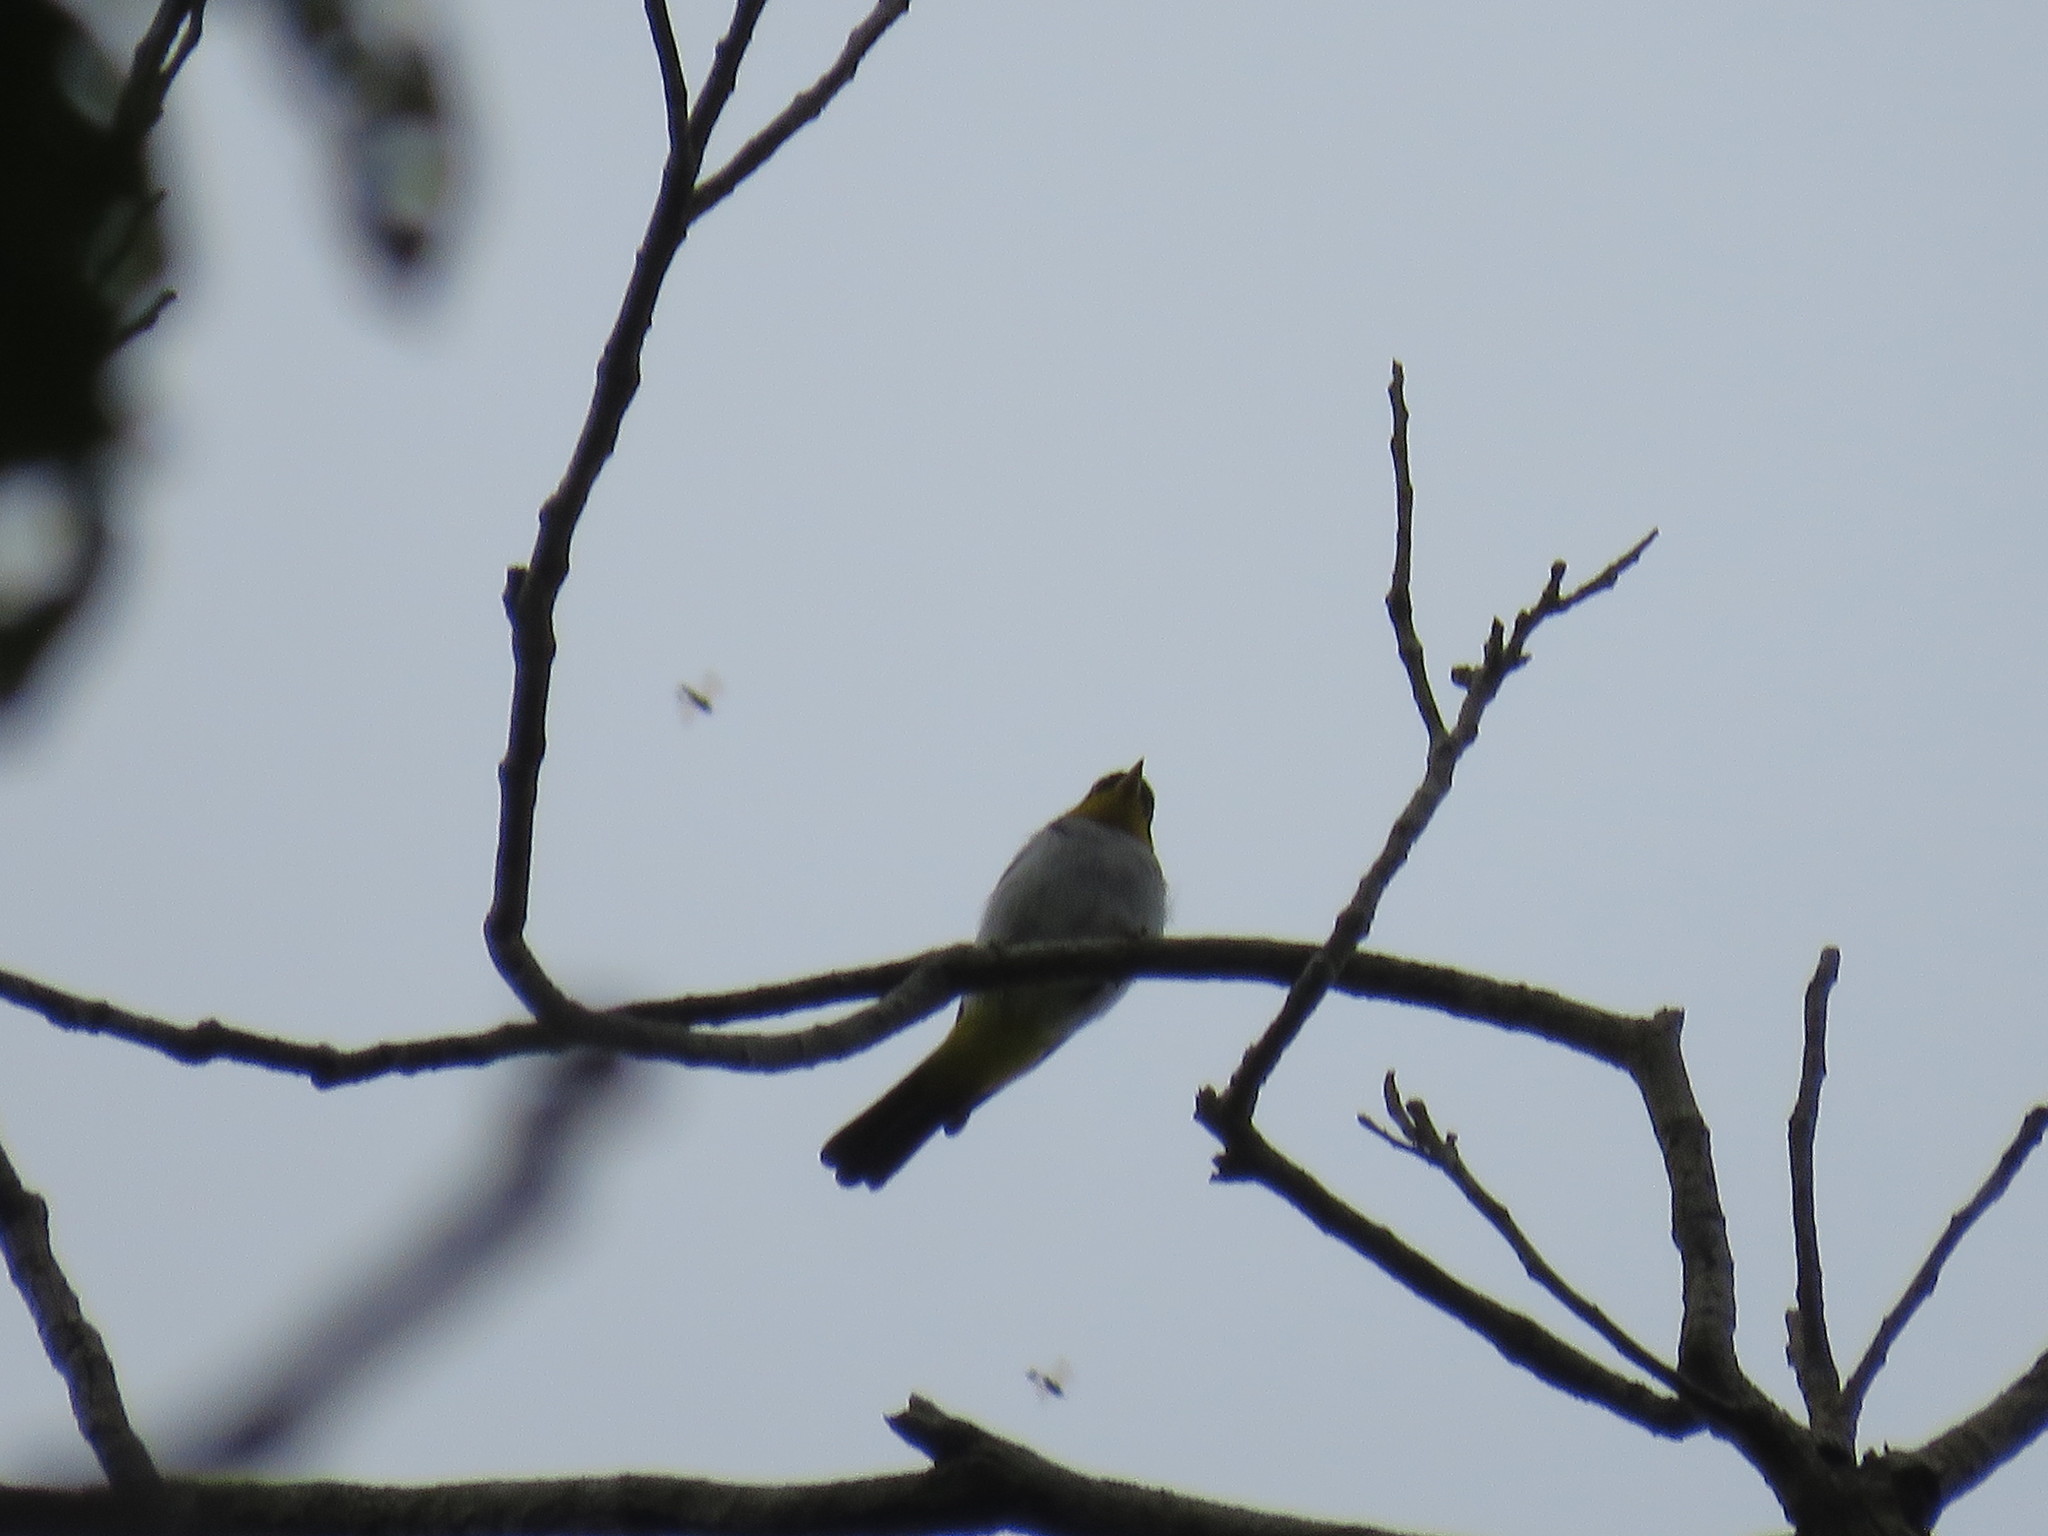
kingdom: Animalia
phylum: Chordata
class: Aves
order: Passeriformes
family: Thraupidae
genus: Hemithraupis
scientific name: Hemithraupis flavicollis
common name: Yellow-backed tanager
